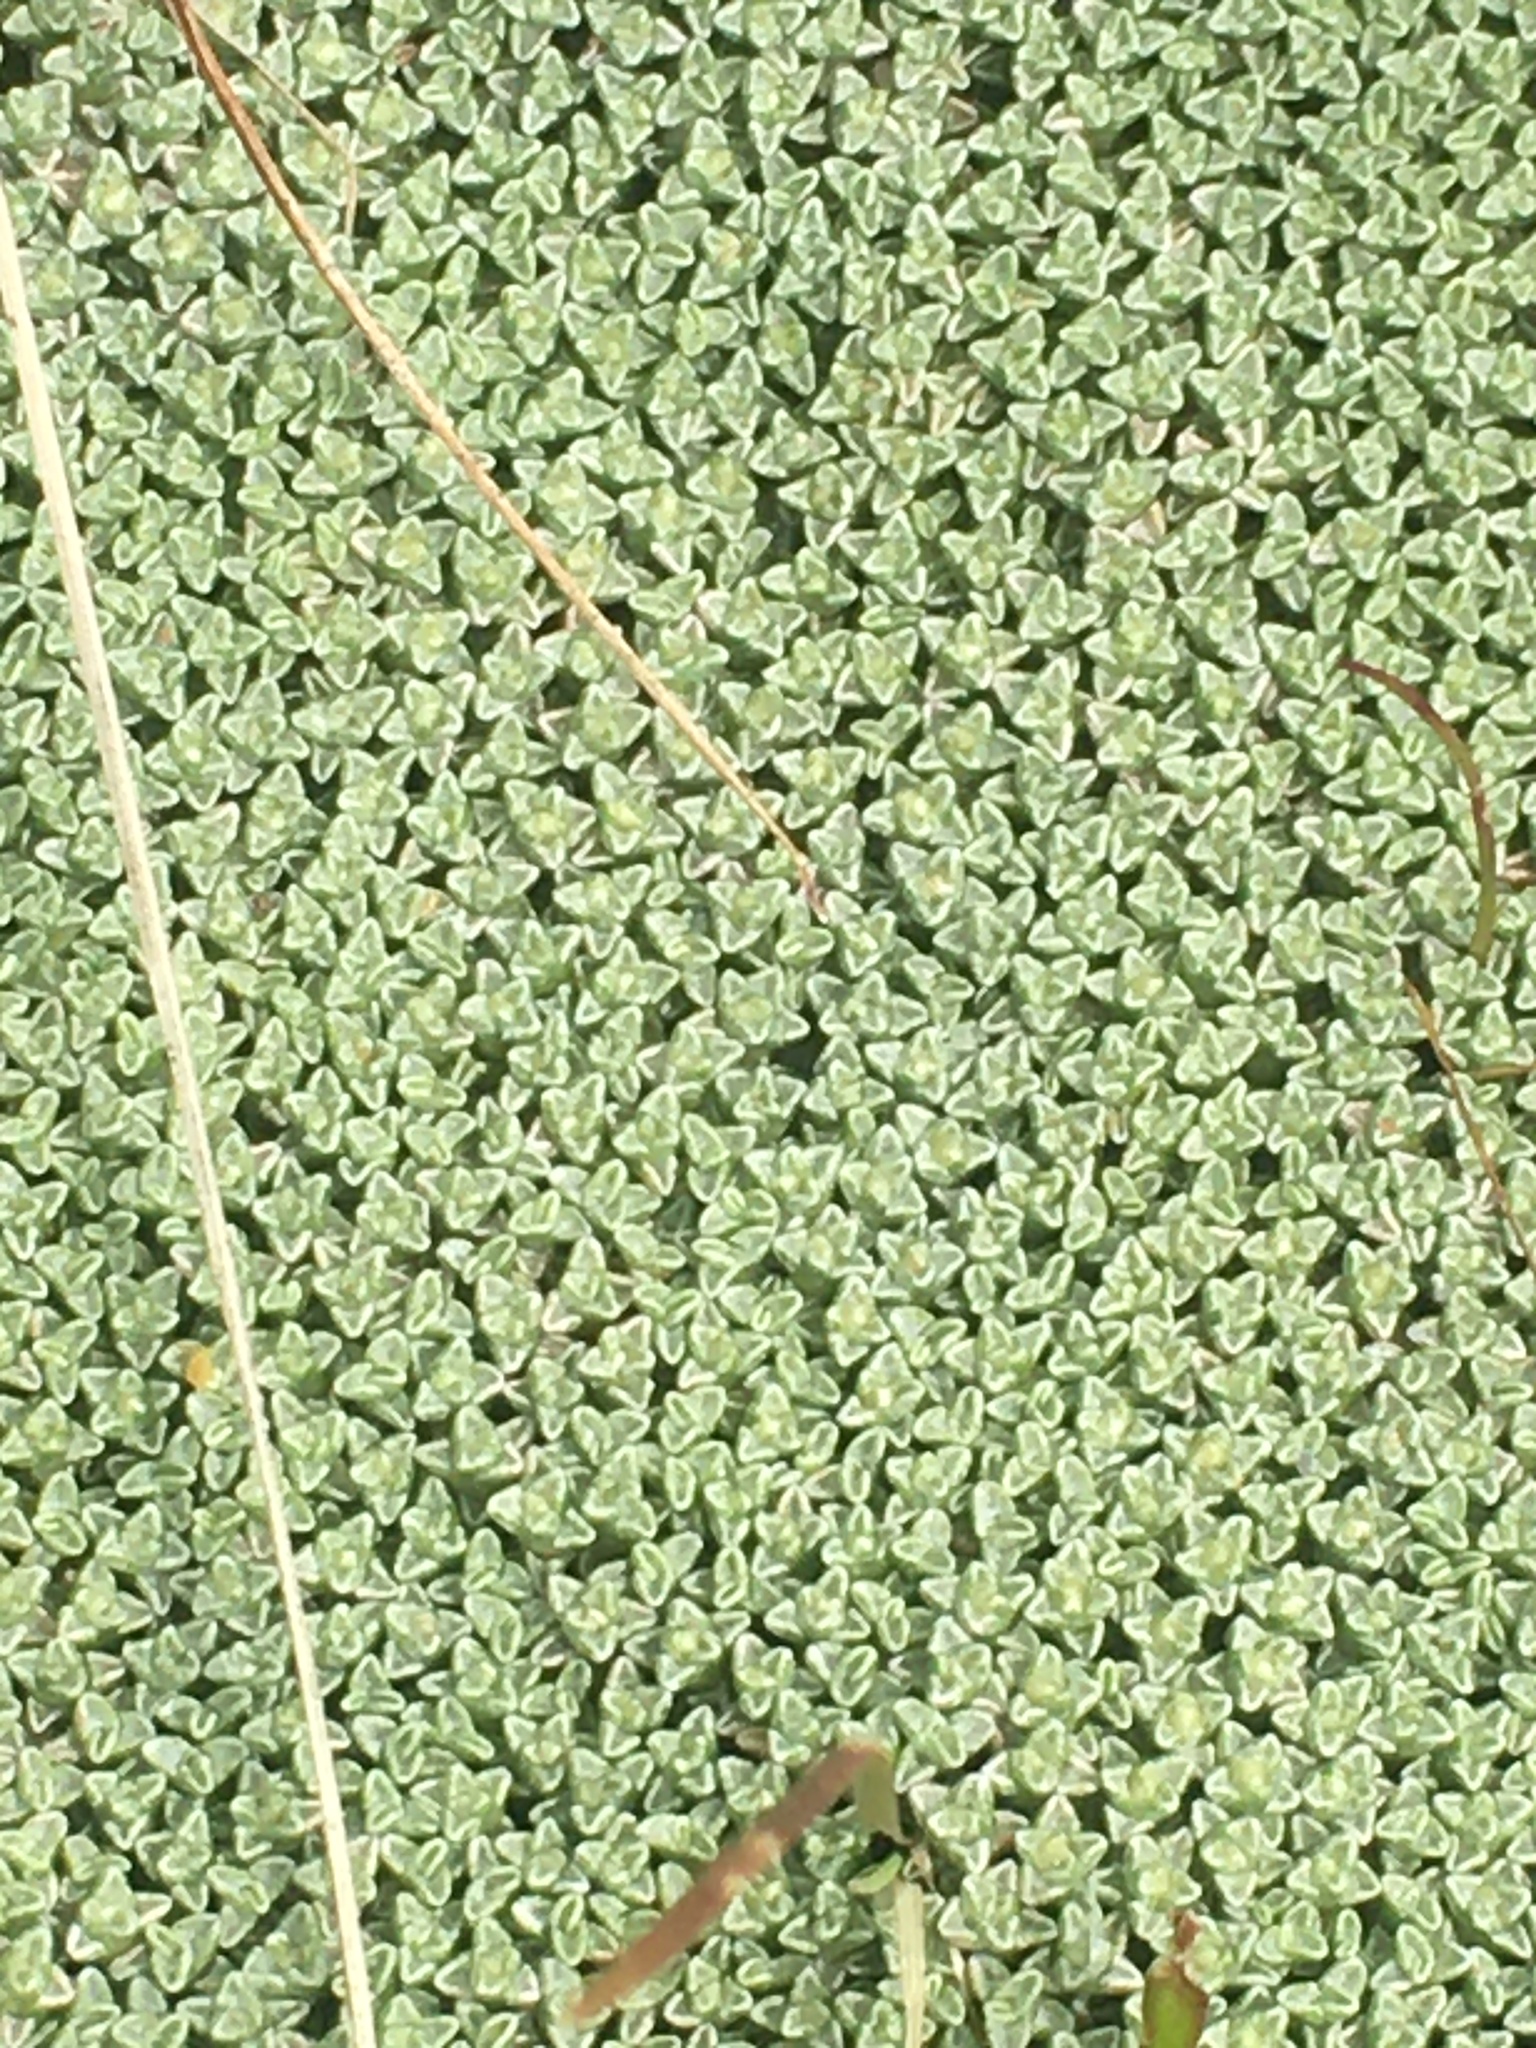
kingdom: Plantae
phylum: Tracheophyta
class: Magnoliopsida
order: Asterales
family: Asteraceae
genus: Raoulia
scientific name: Raoulia australis
